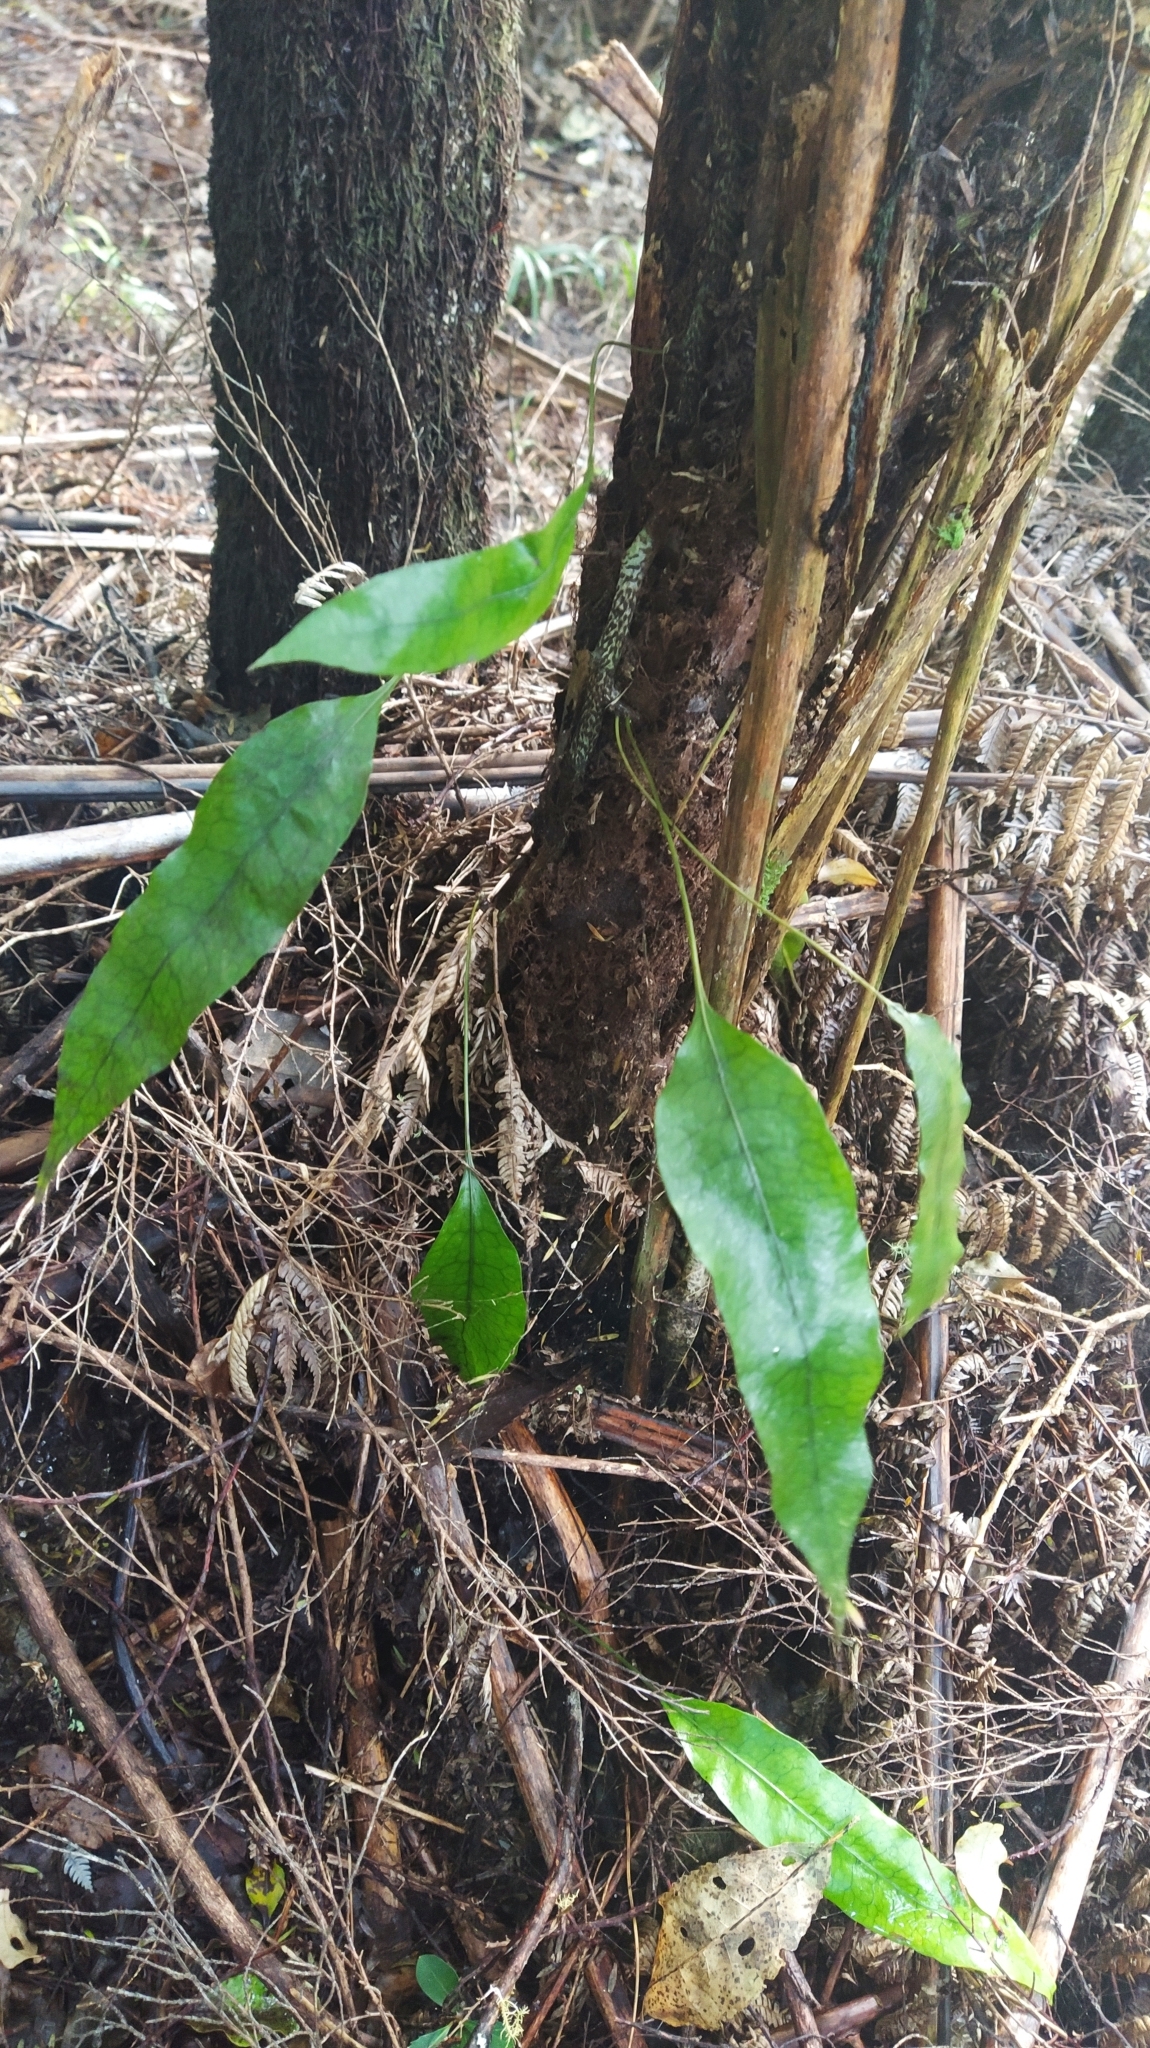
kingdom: Plantae
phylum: Tracheophyta
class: Polypodiopsida
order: Polypodiales
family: Polypodiaceae
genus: Lecanopteris
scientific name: Lecanopteris pustulata
